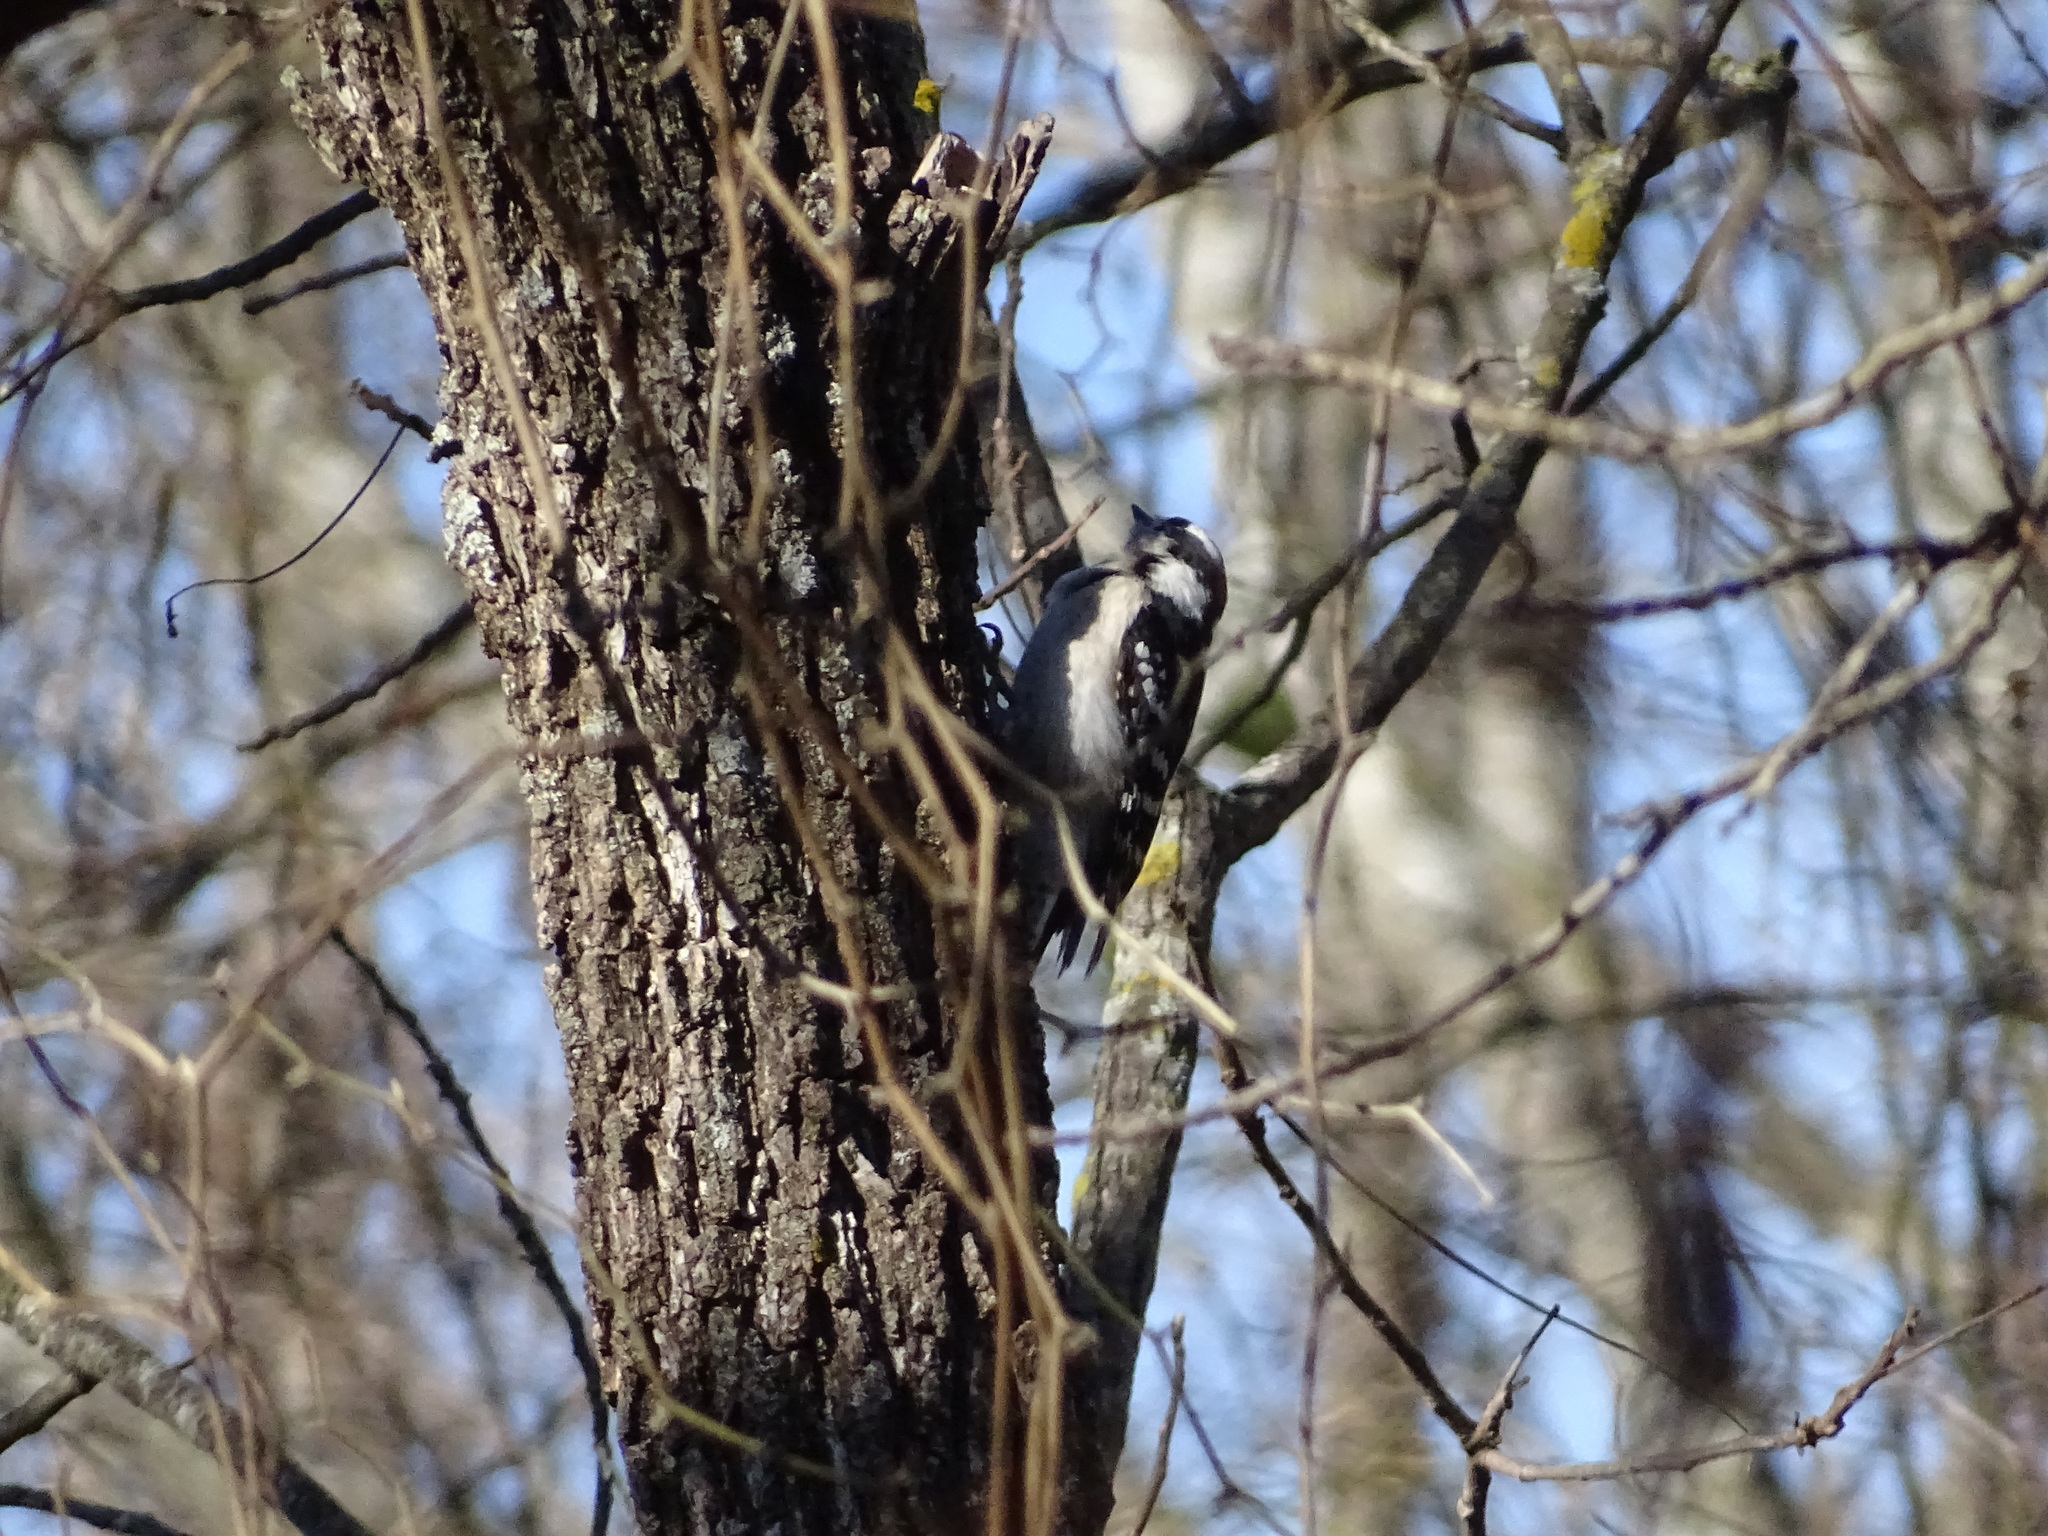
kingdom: Animalia
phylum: Chordata
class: Aves
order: Piciformes
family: Picidae
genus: Dryobates
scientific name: Dryobates pubescens
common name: Downy woodpecker
